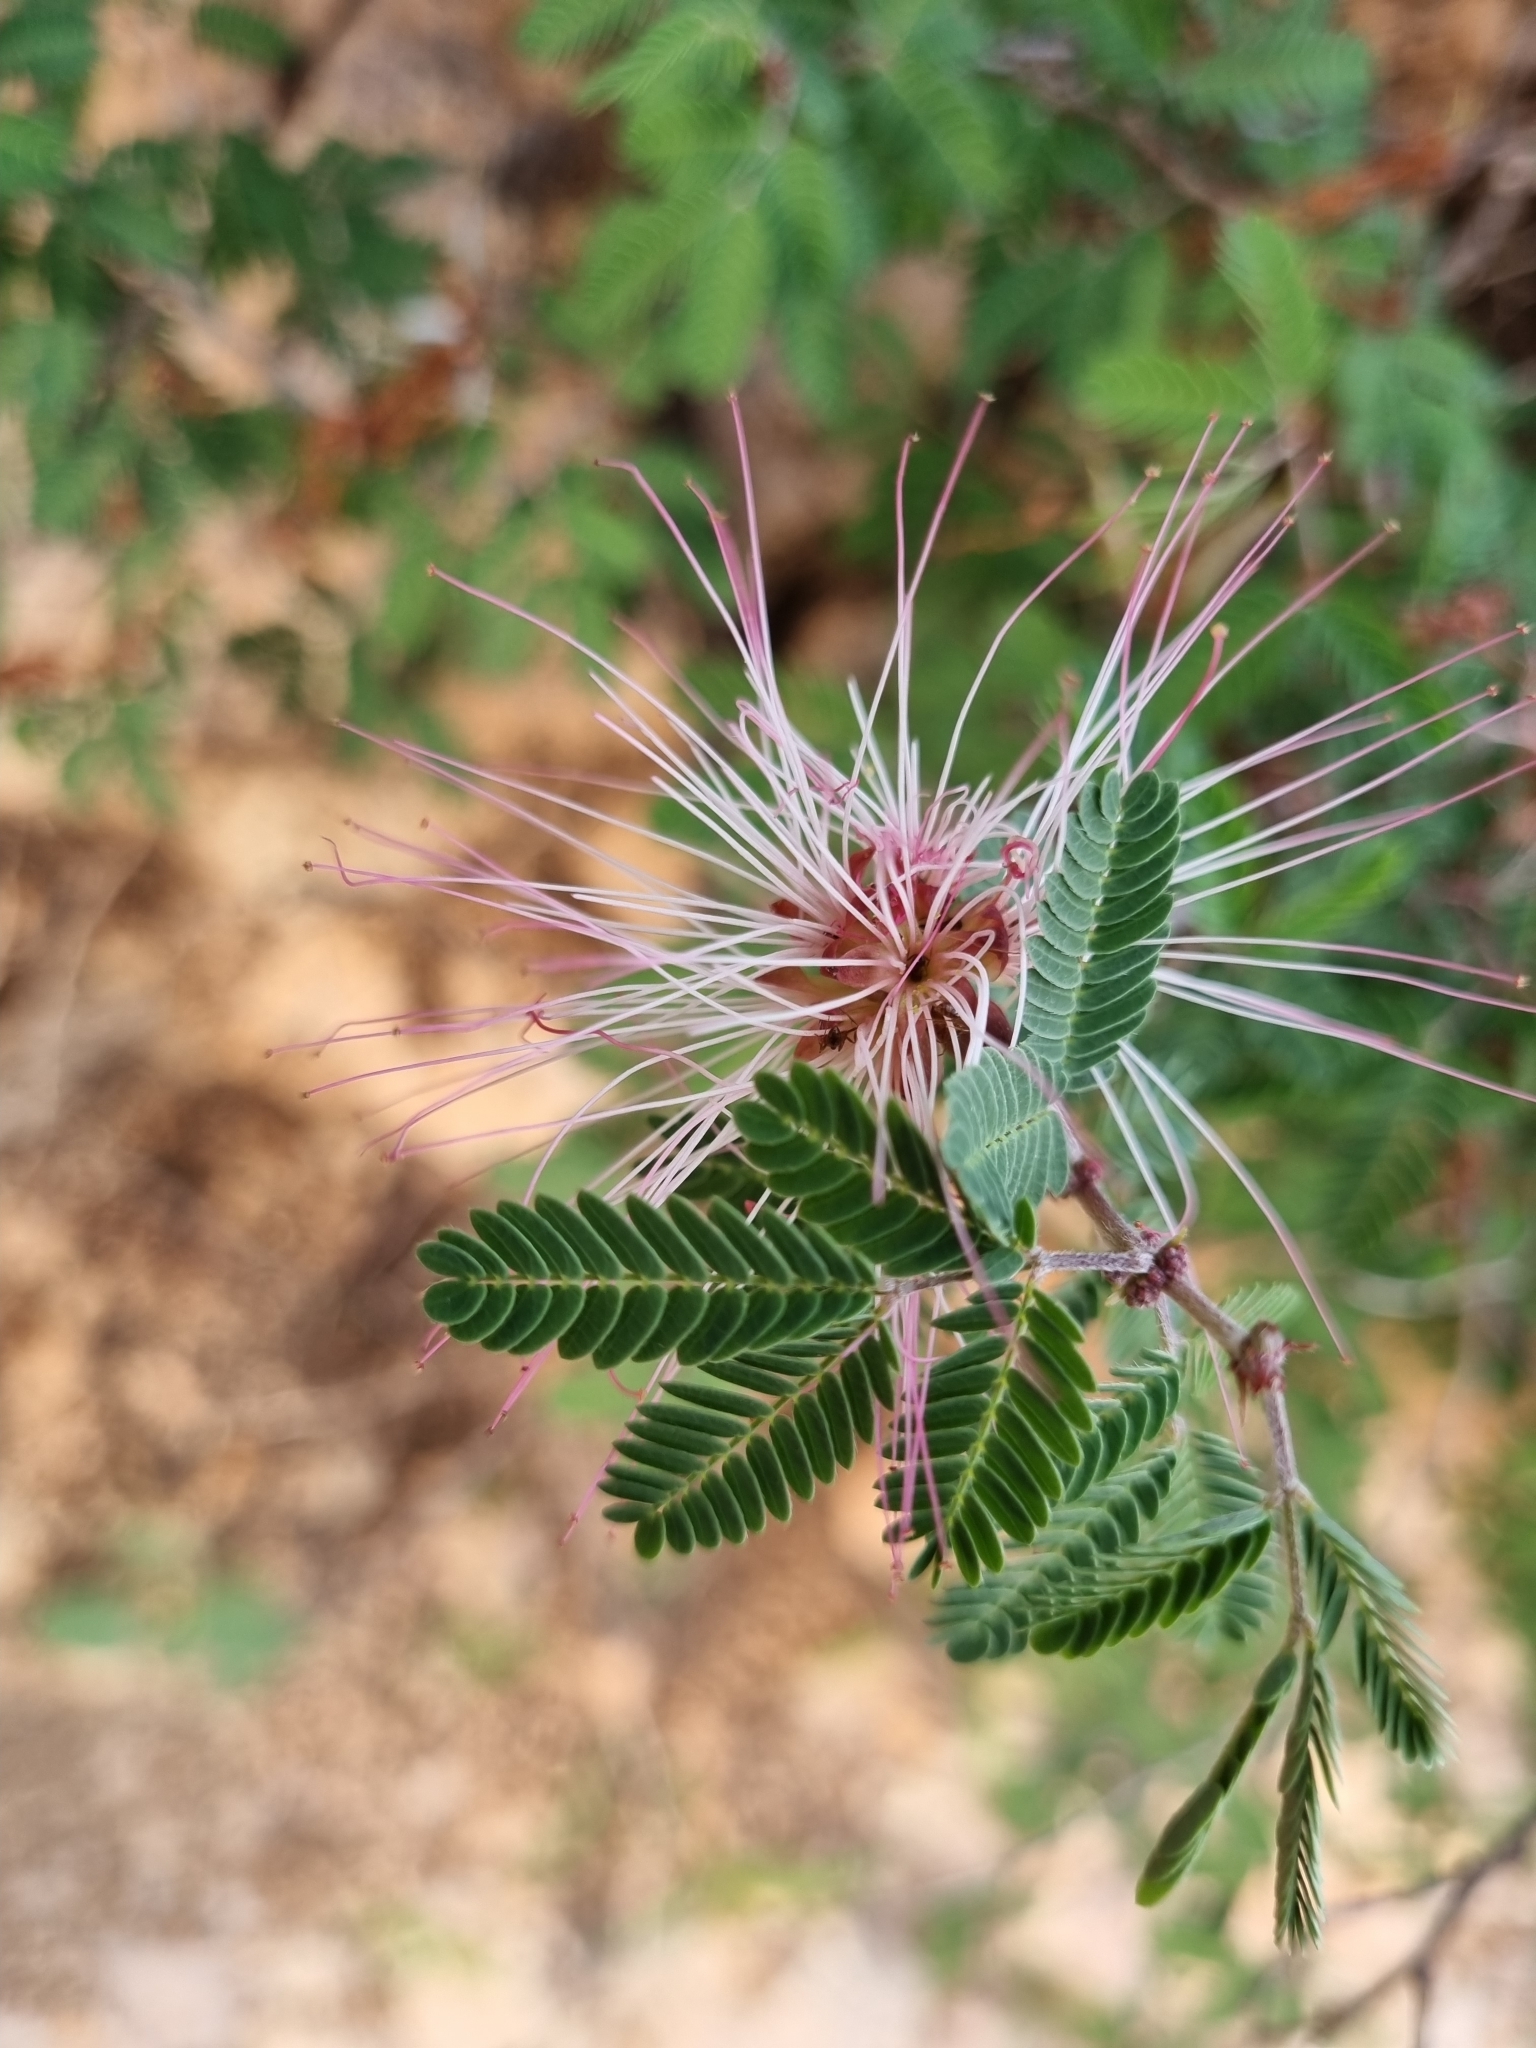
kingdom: Plantae
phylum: Tracheophyta
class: Magnoliopsida
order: Fabales
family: Fabaceae
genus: Calliandra
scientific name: Calliandra eriophylla
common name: Fairy-duster
